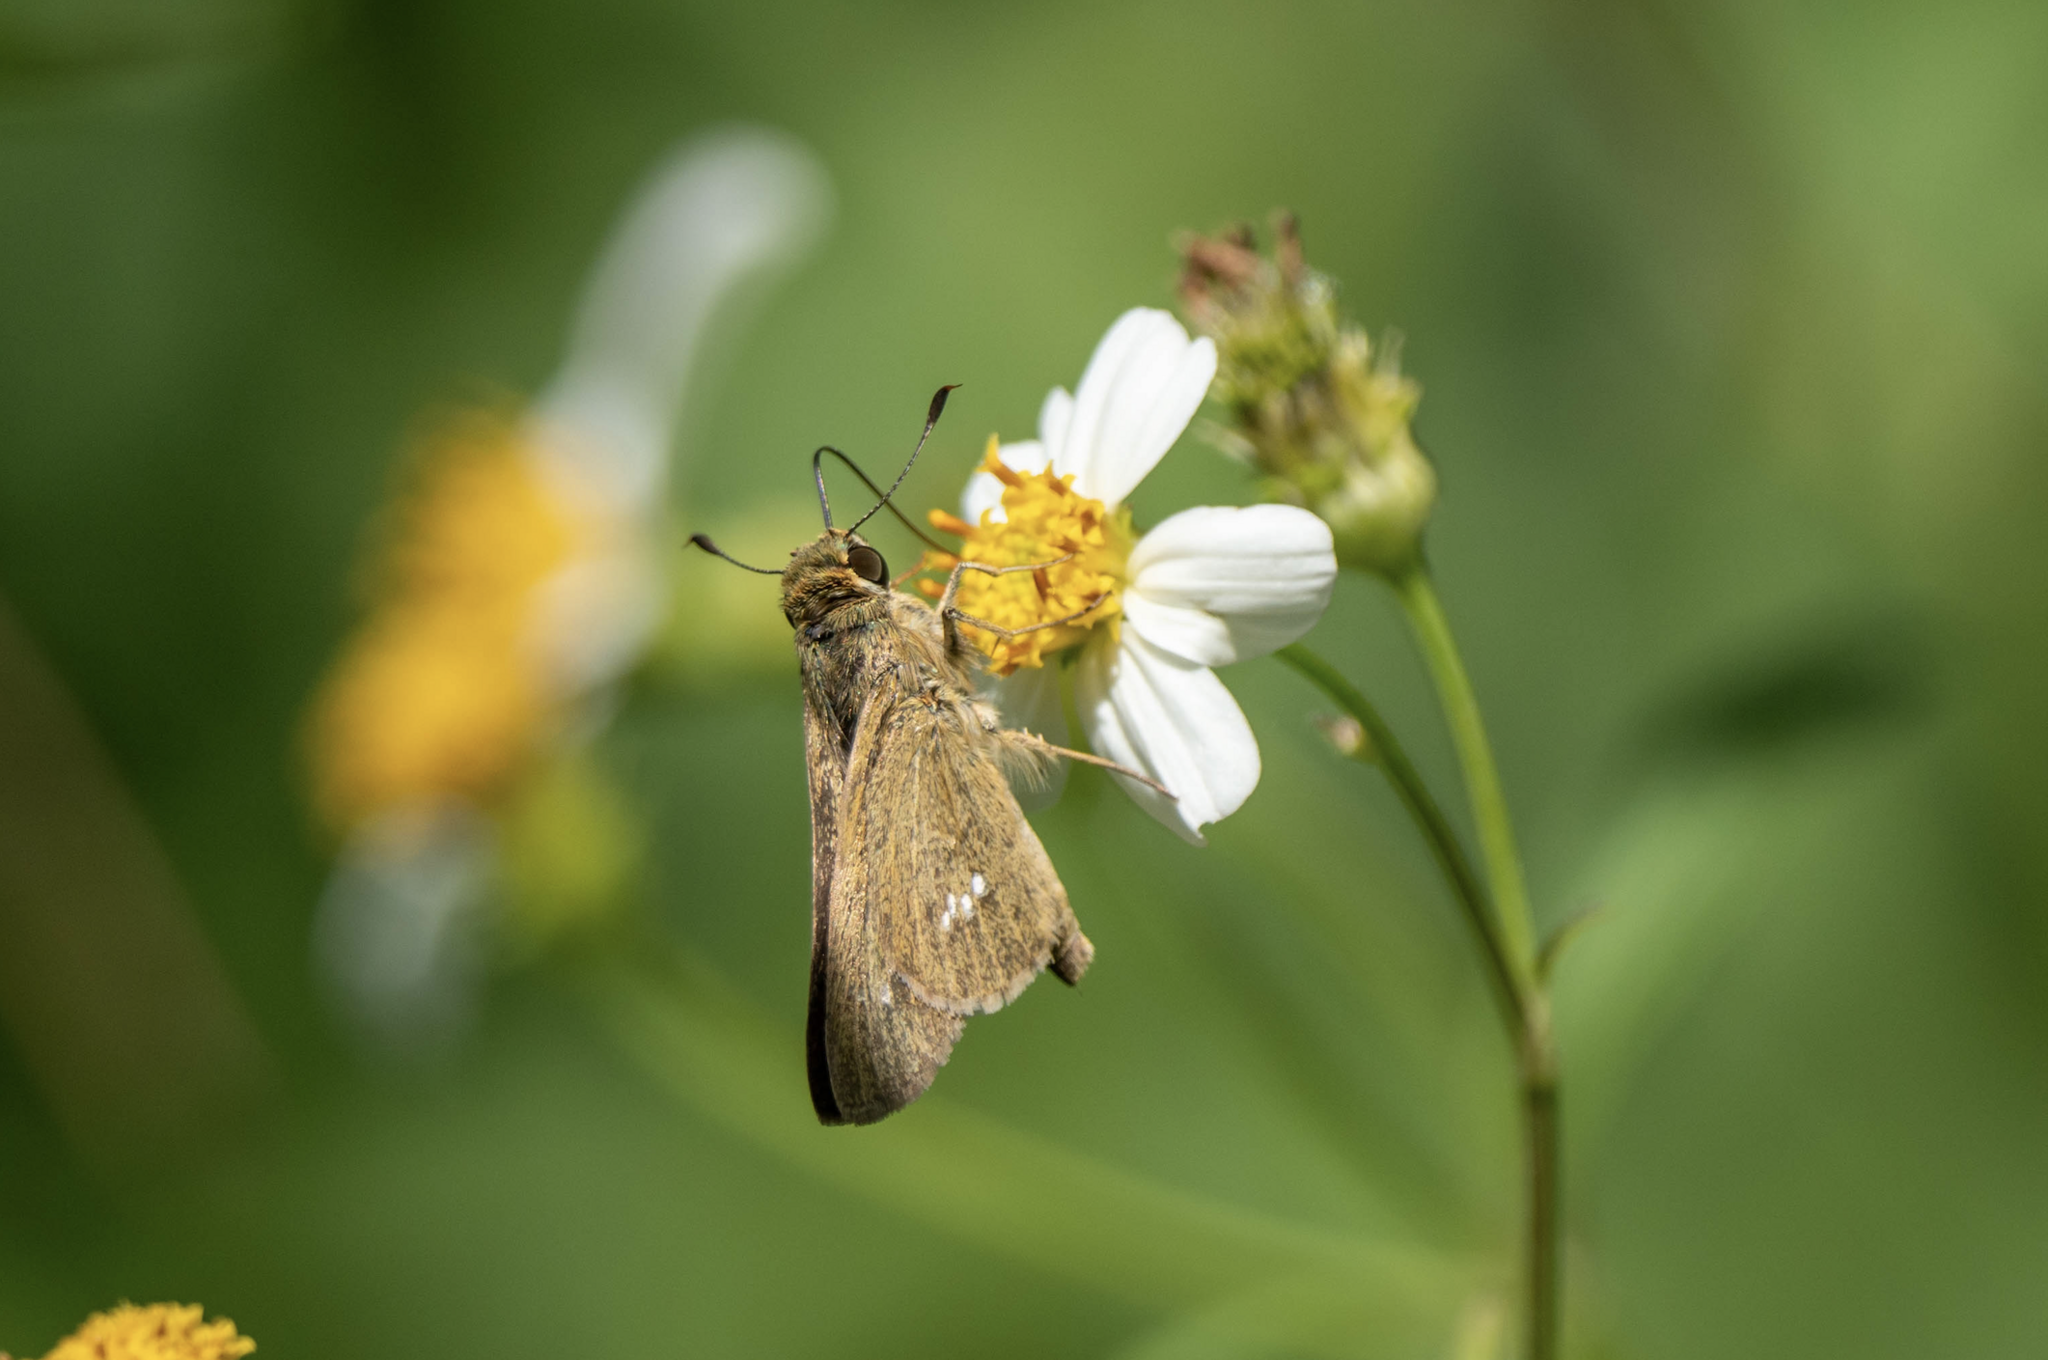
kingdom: Animalia
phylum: Arthropoda
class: Insecta
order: Lepidoptera
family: Hesperiidae
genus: Parnara
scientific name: Parnara ganga
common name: Continental swift
